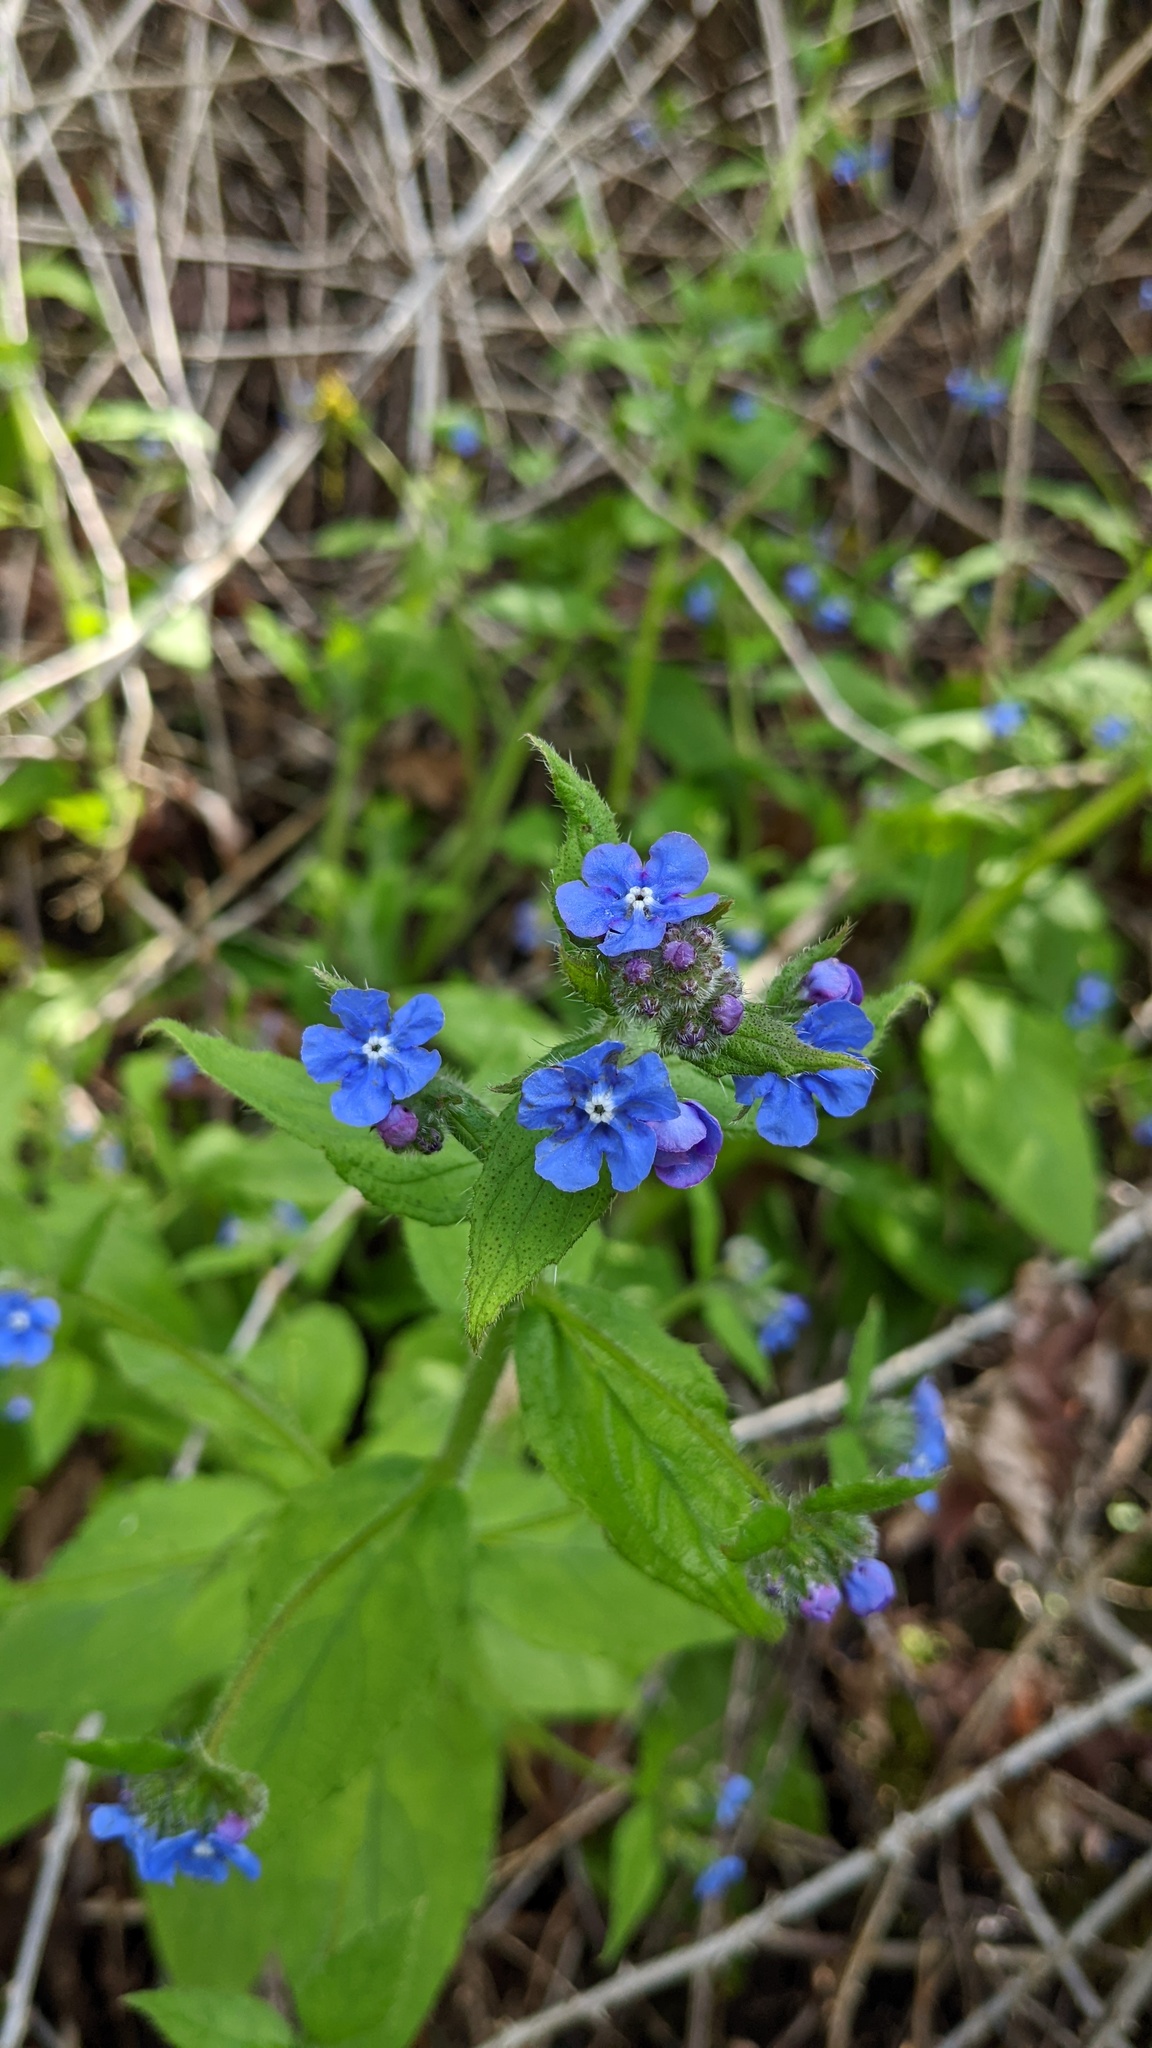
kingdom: Plantae
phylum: Tracheophyta
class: Magnoliopsida
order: Boraginales
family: Boraginaceae
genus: Pentaglottis
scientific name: Pentaglottis sempervirens
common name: Green alkanet
